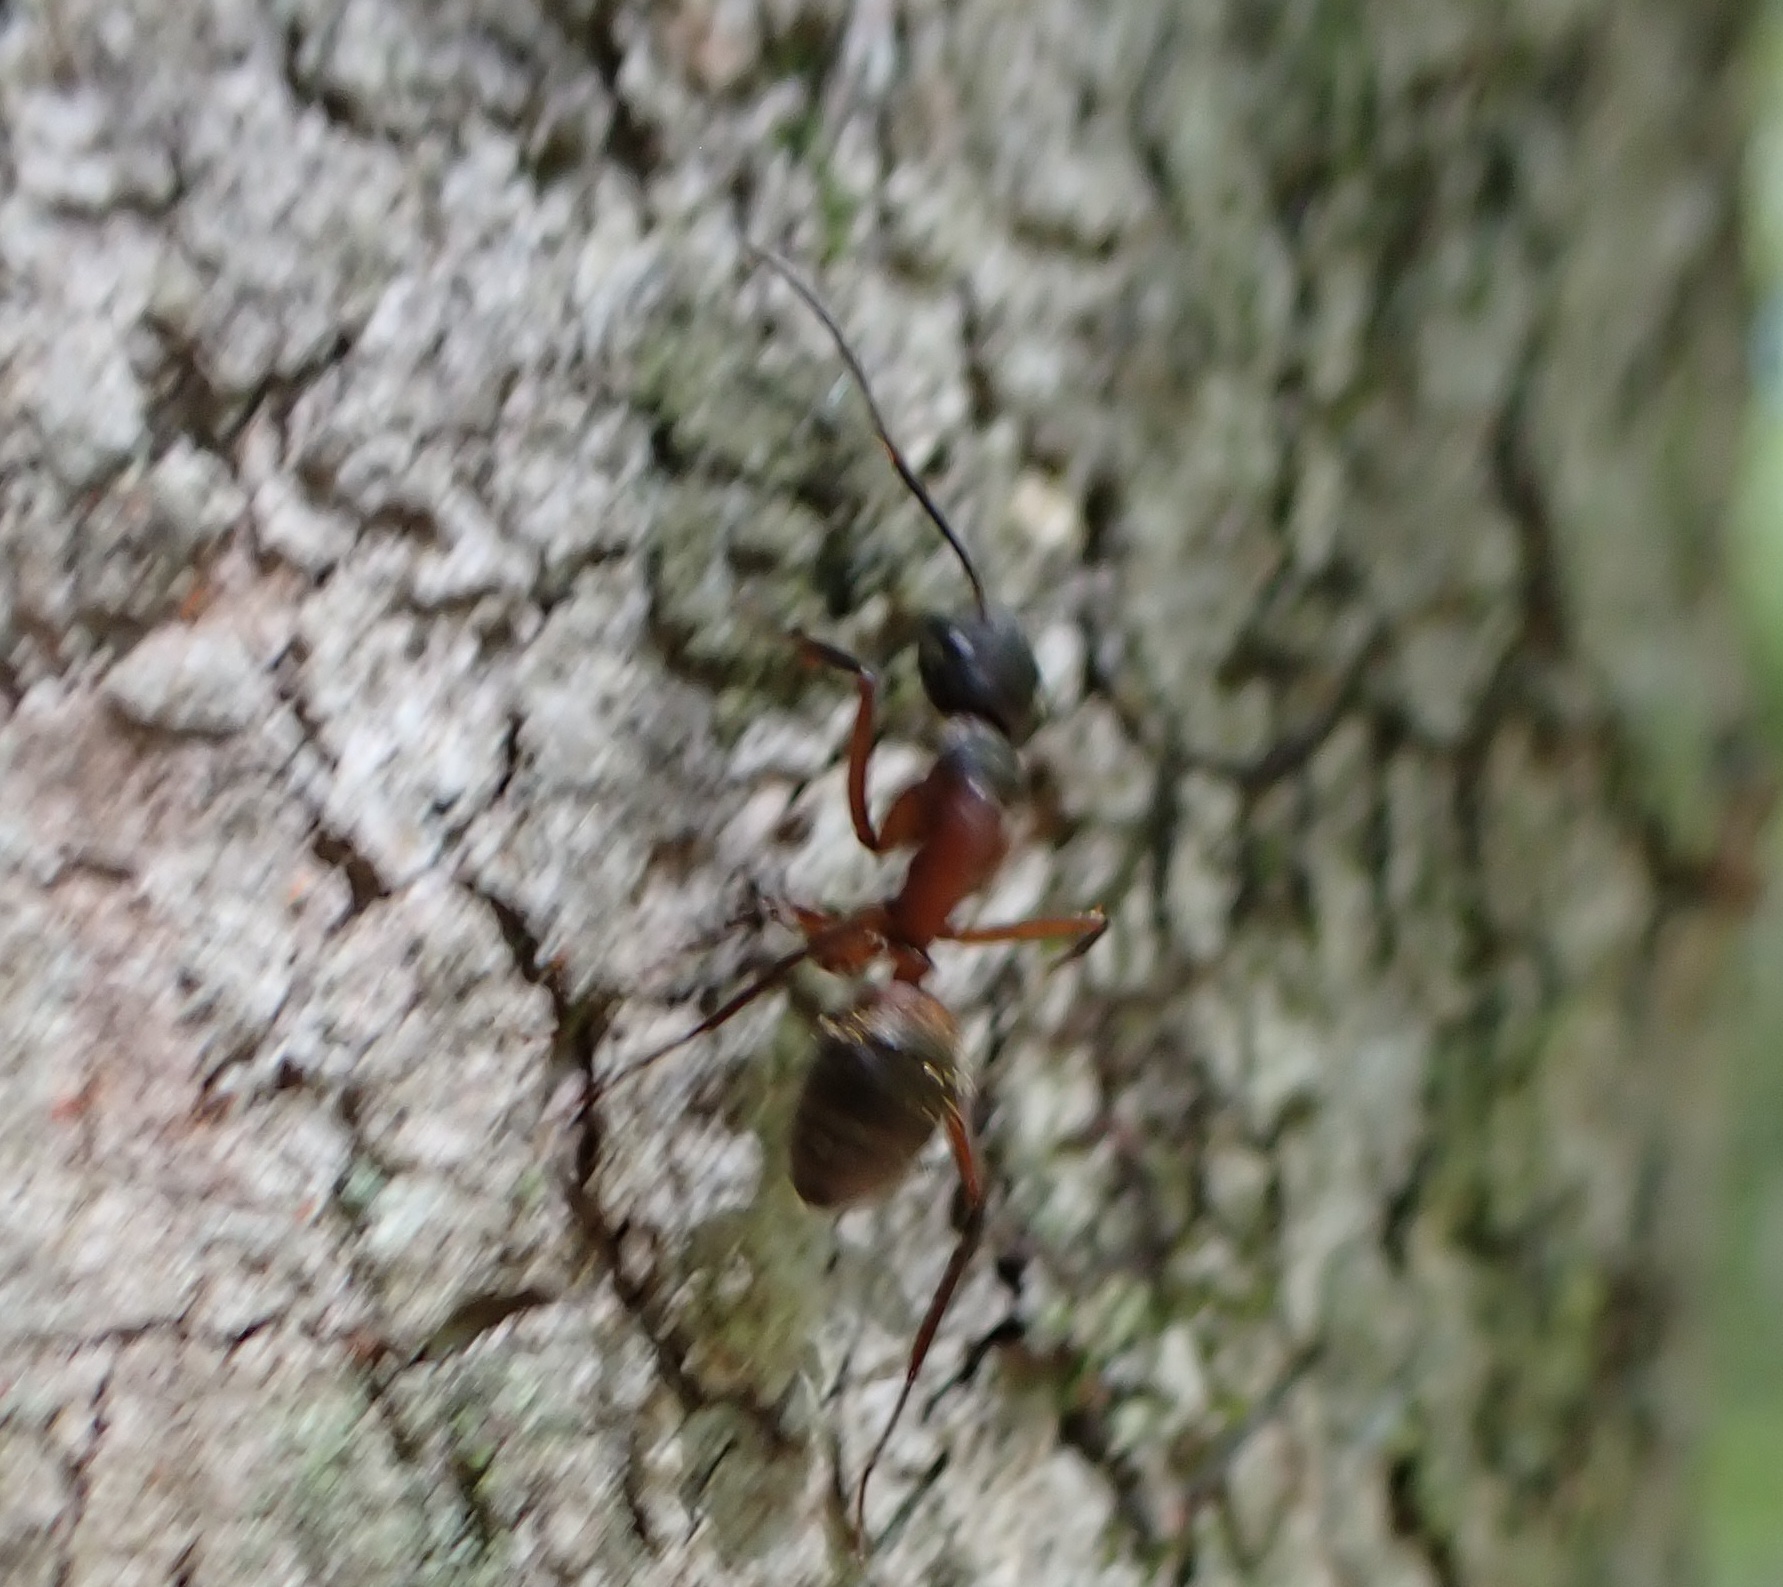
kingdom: Animalia
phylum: Arthropoda
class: Insecta
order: Hymenoptera
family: Formicidae
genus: Camponotus
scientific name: Camponotus chromaiodes
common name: Red carpenter ant
